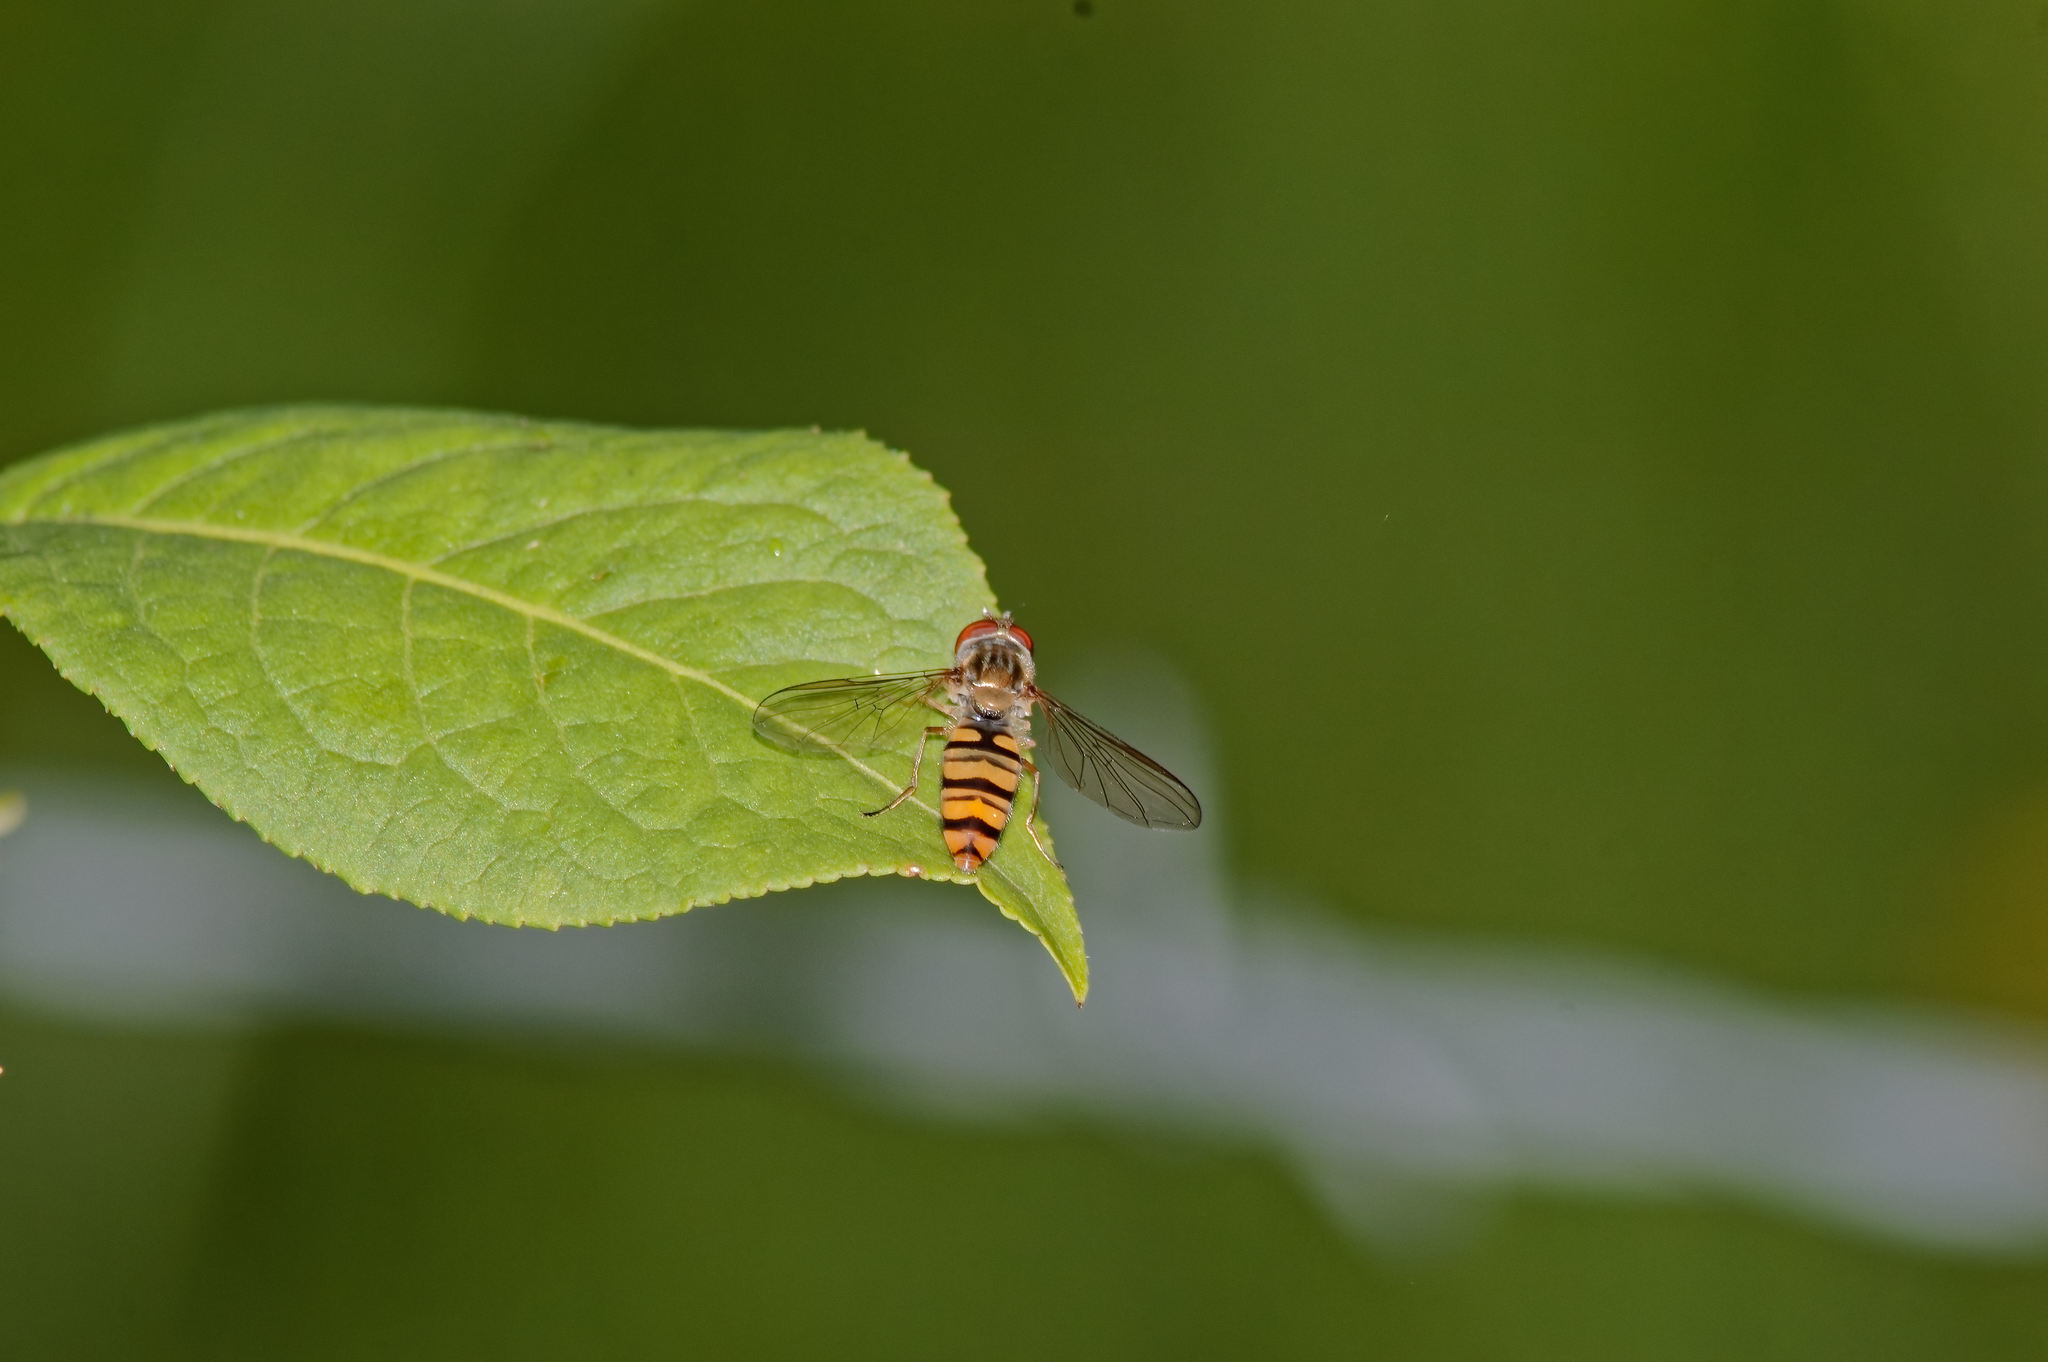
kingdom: Animalia
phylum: Arthropoda
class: Insecta
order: Diptera
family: Syrphidae
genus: Episyrphus
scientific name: Episyrphus balteatus
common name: Marmalade hoverfly
